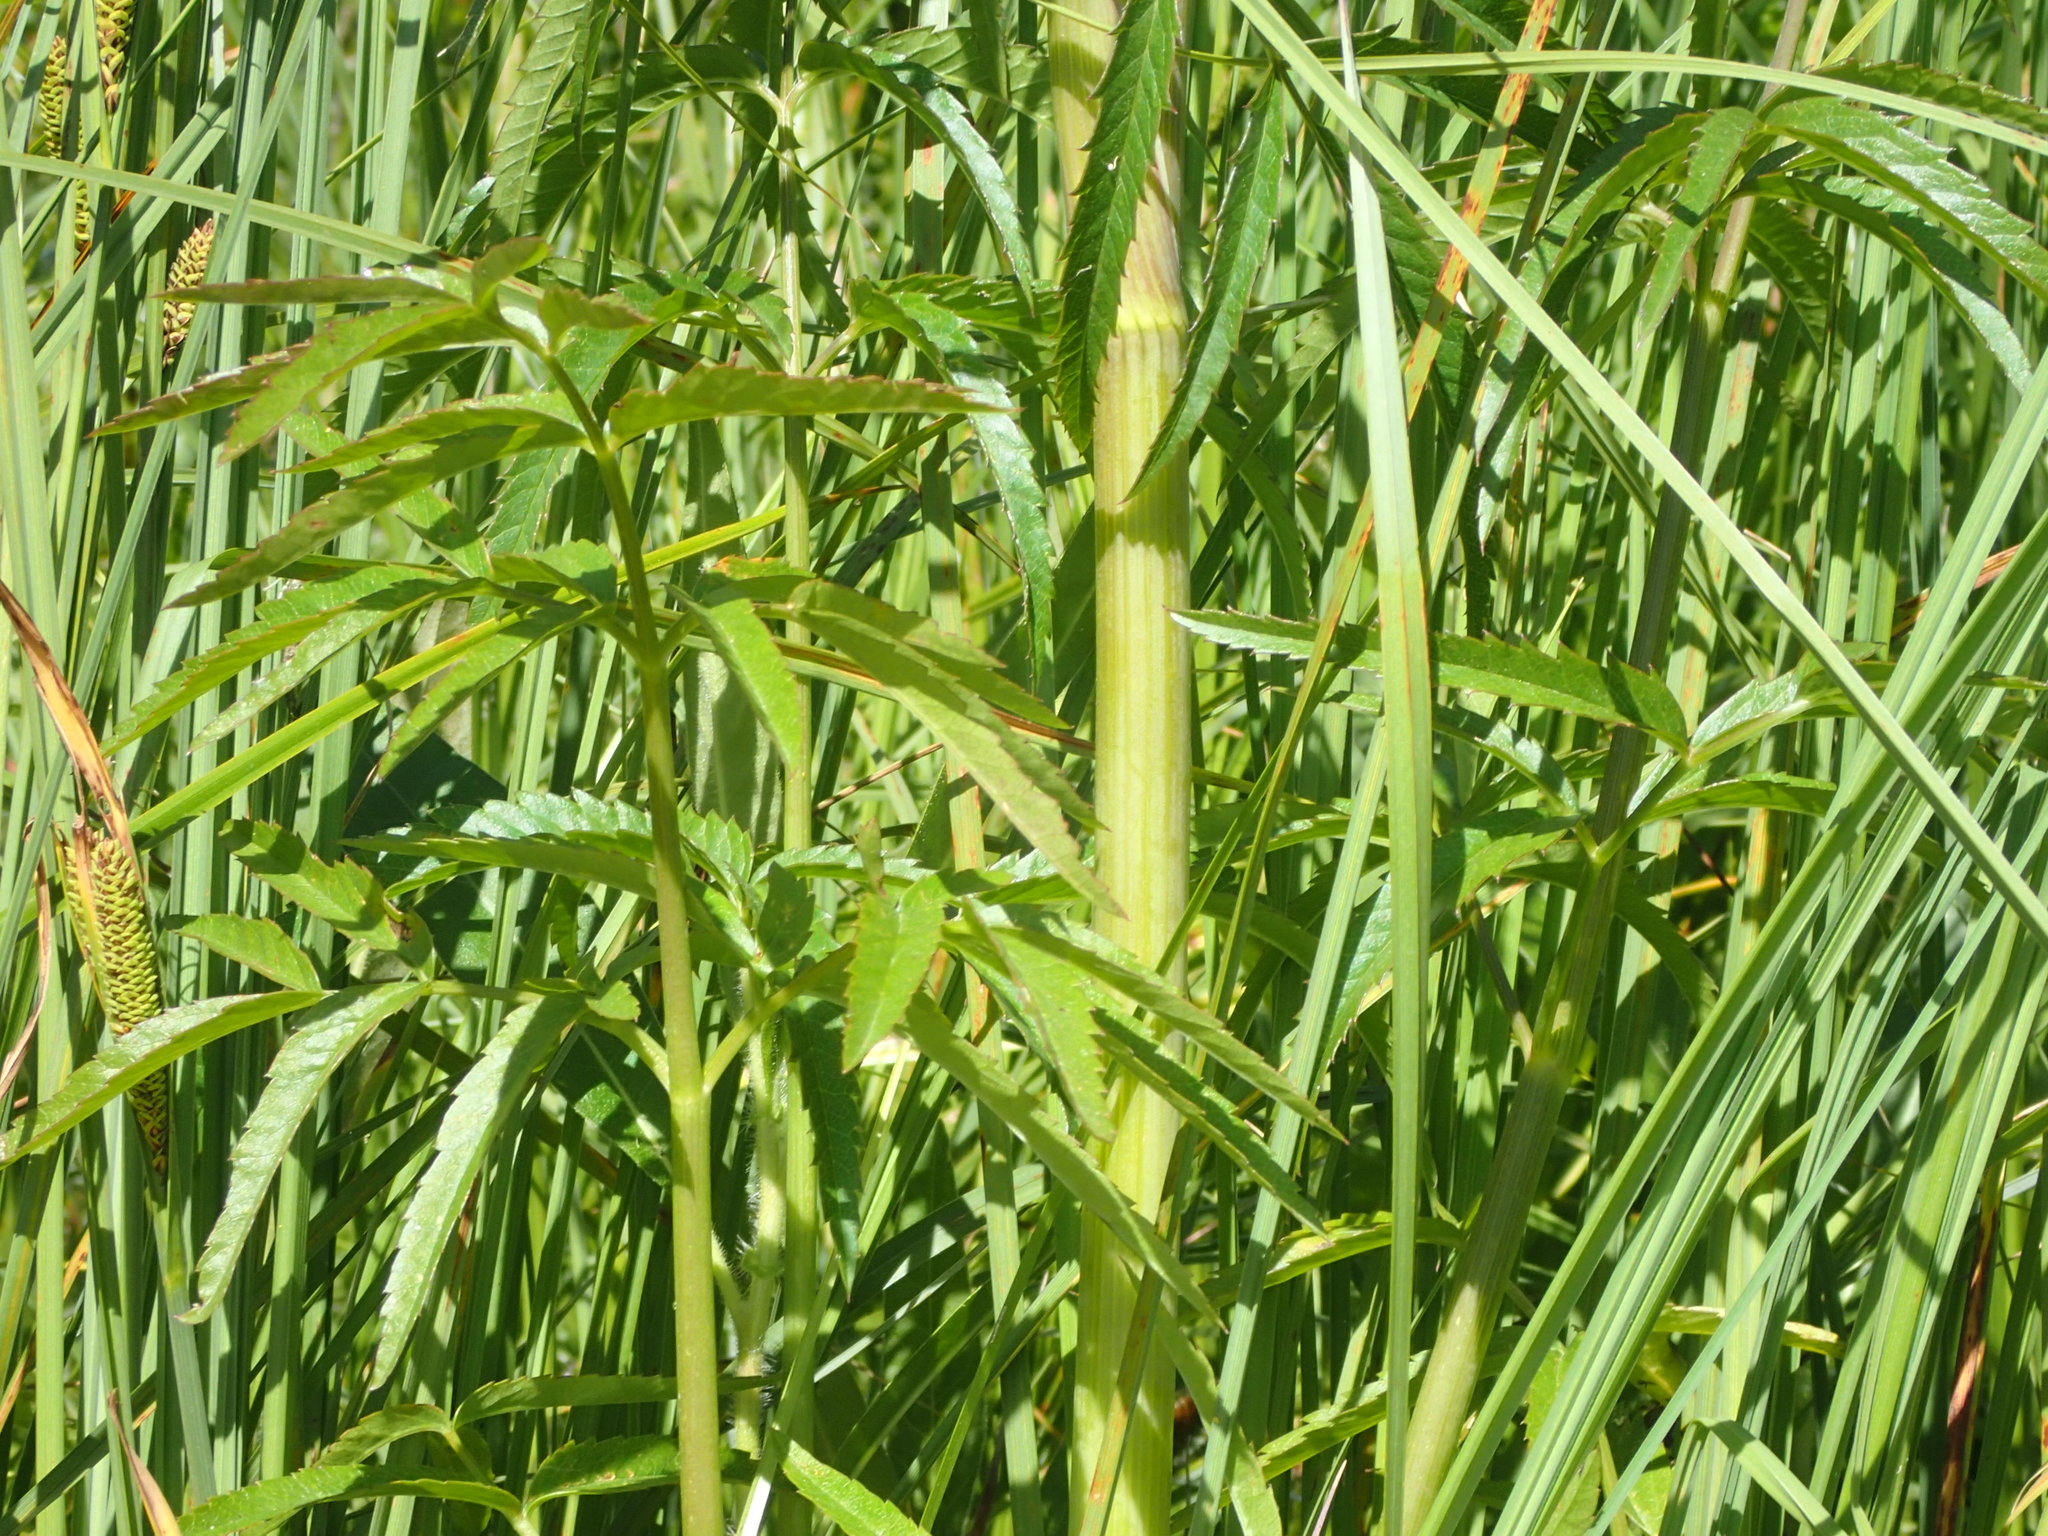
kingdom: Plantae
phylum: Tracheophyta
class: Magnoliopsida
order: Apiales
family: Apiaceae
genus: Cicuta
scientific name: Cicuta maculata
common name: Spotted cowbane
